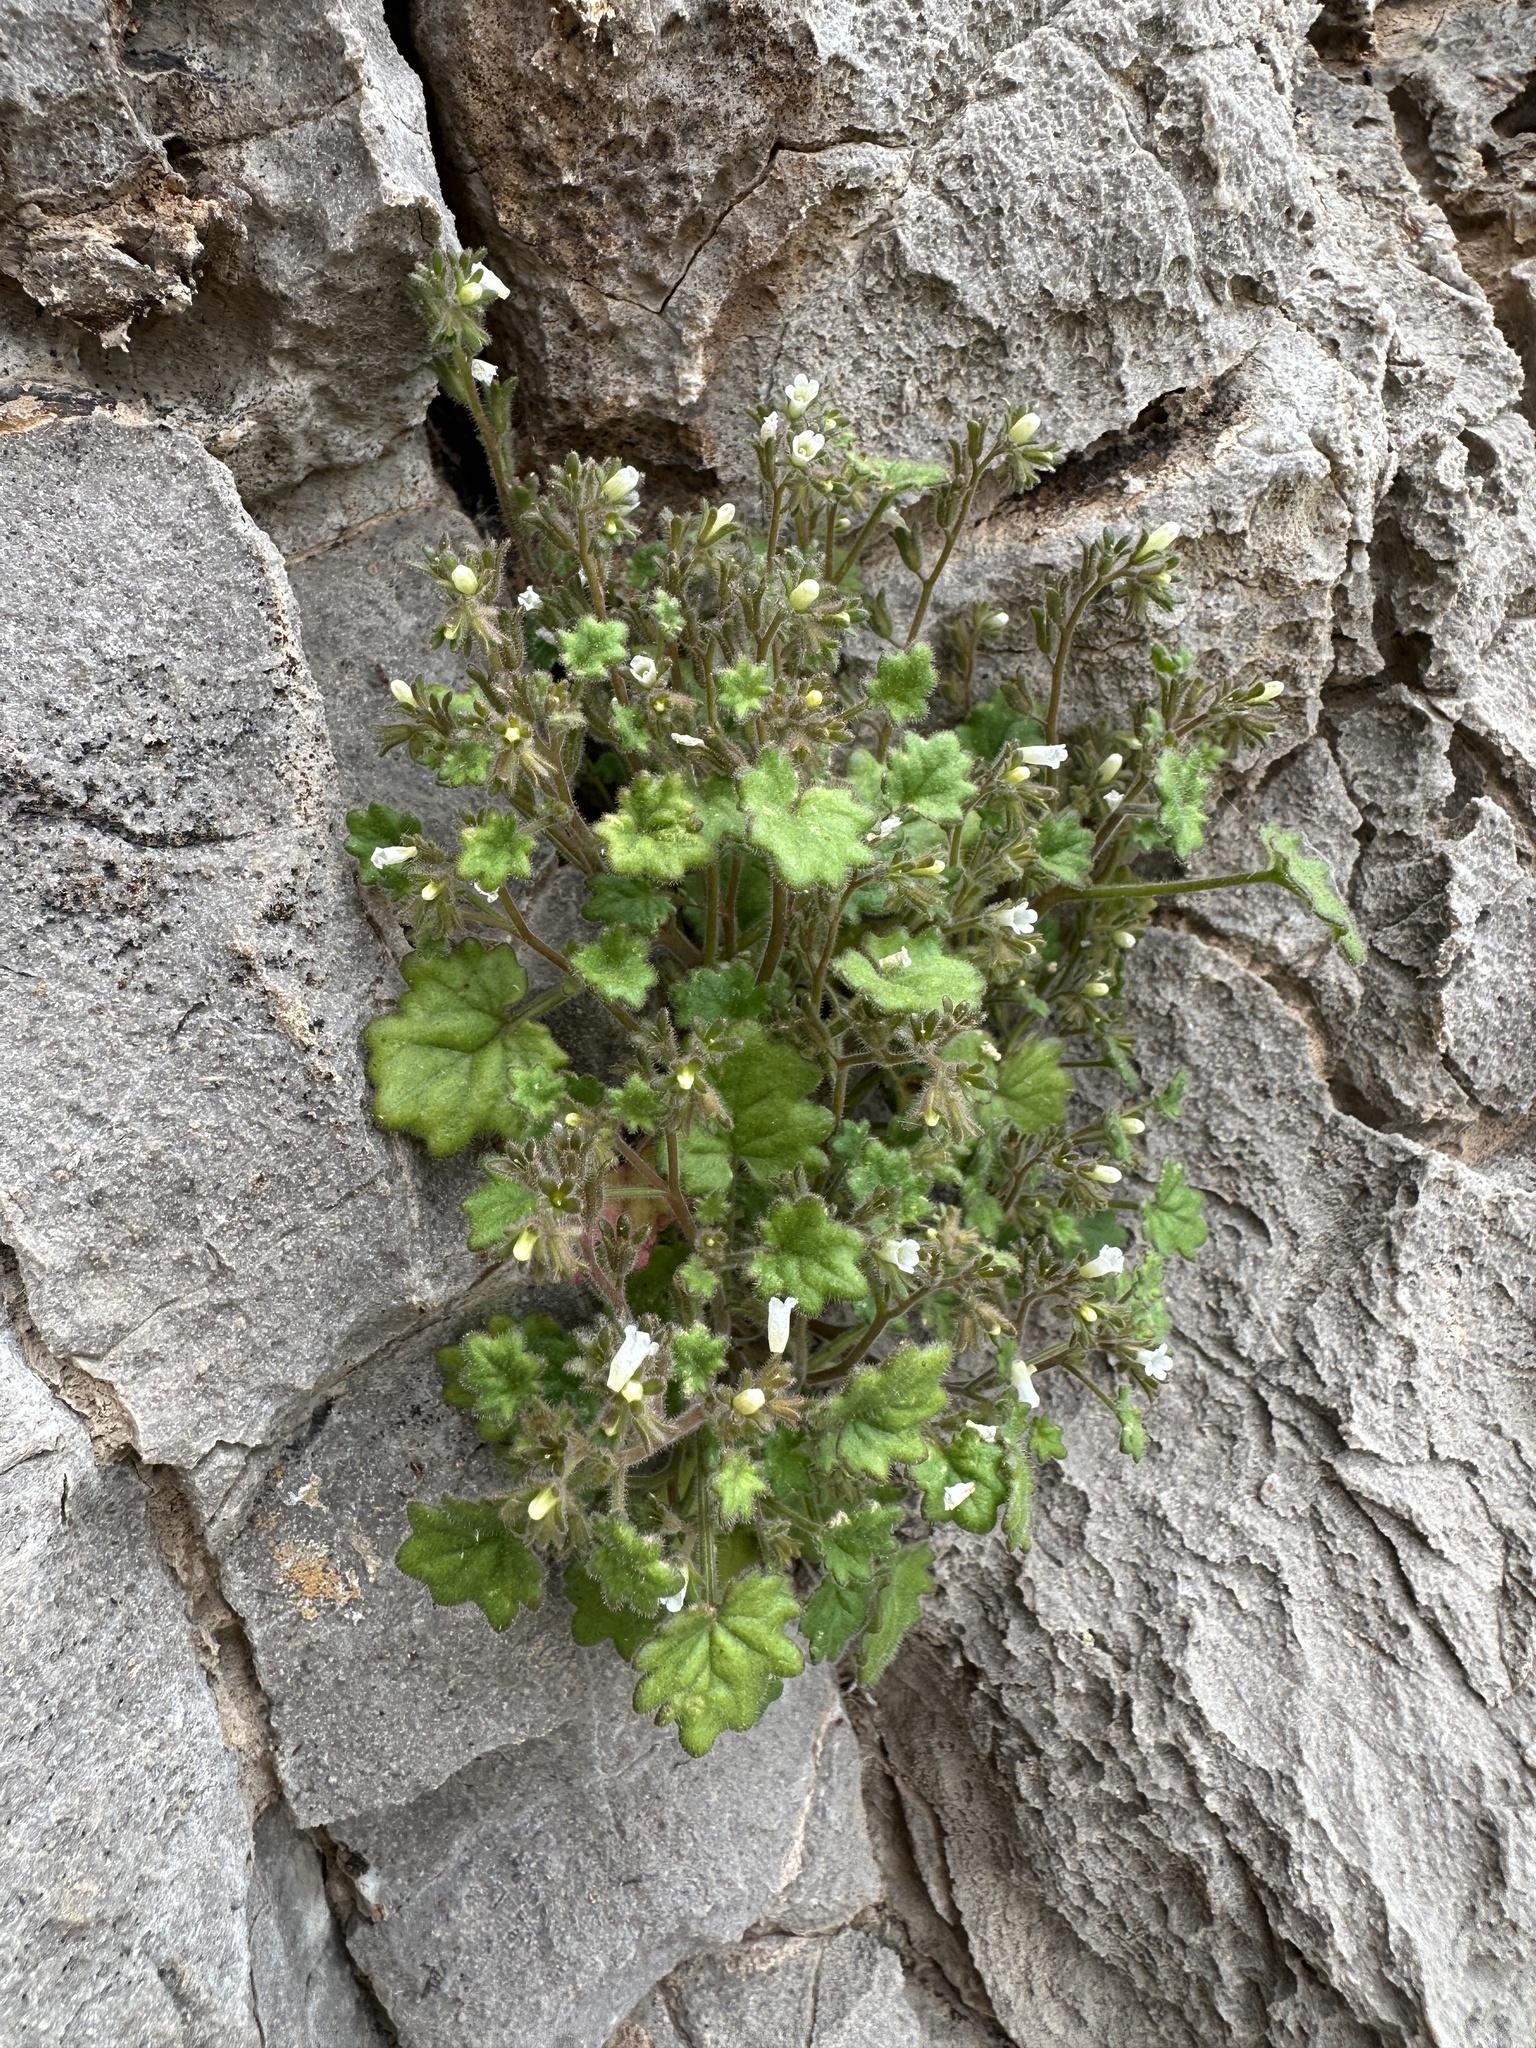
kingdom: Plantae
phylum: Tracheophyta
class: Magnoliopsida
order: Boraginales
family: Hydrophyllaceae
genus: Phacelia
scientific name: Phacelia rotundifolia
